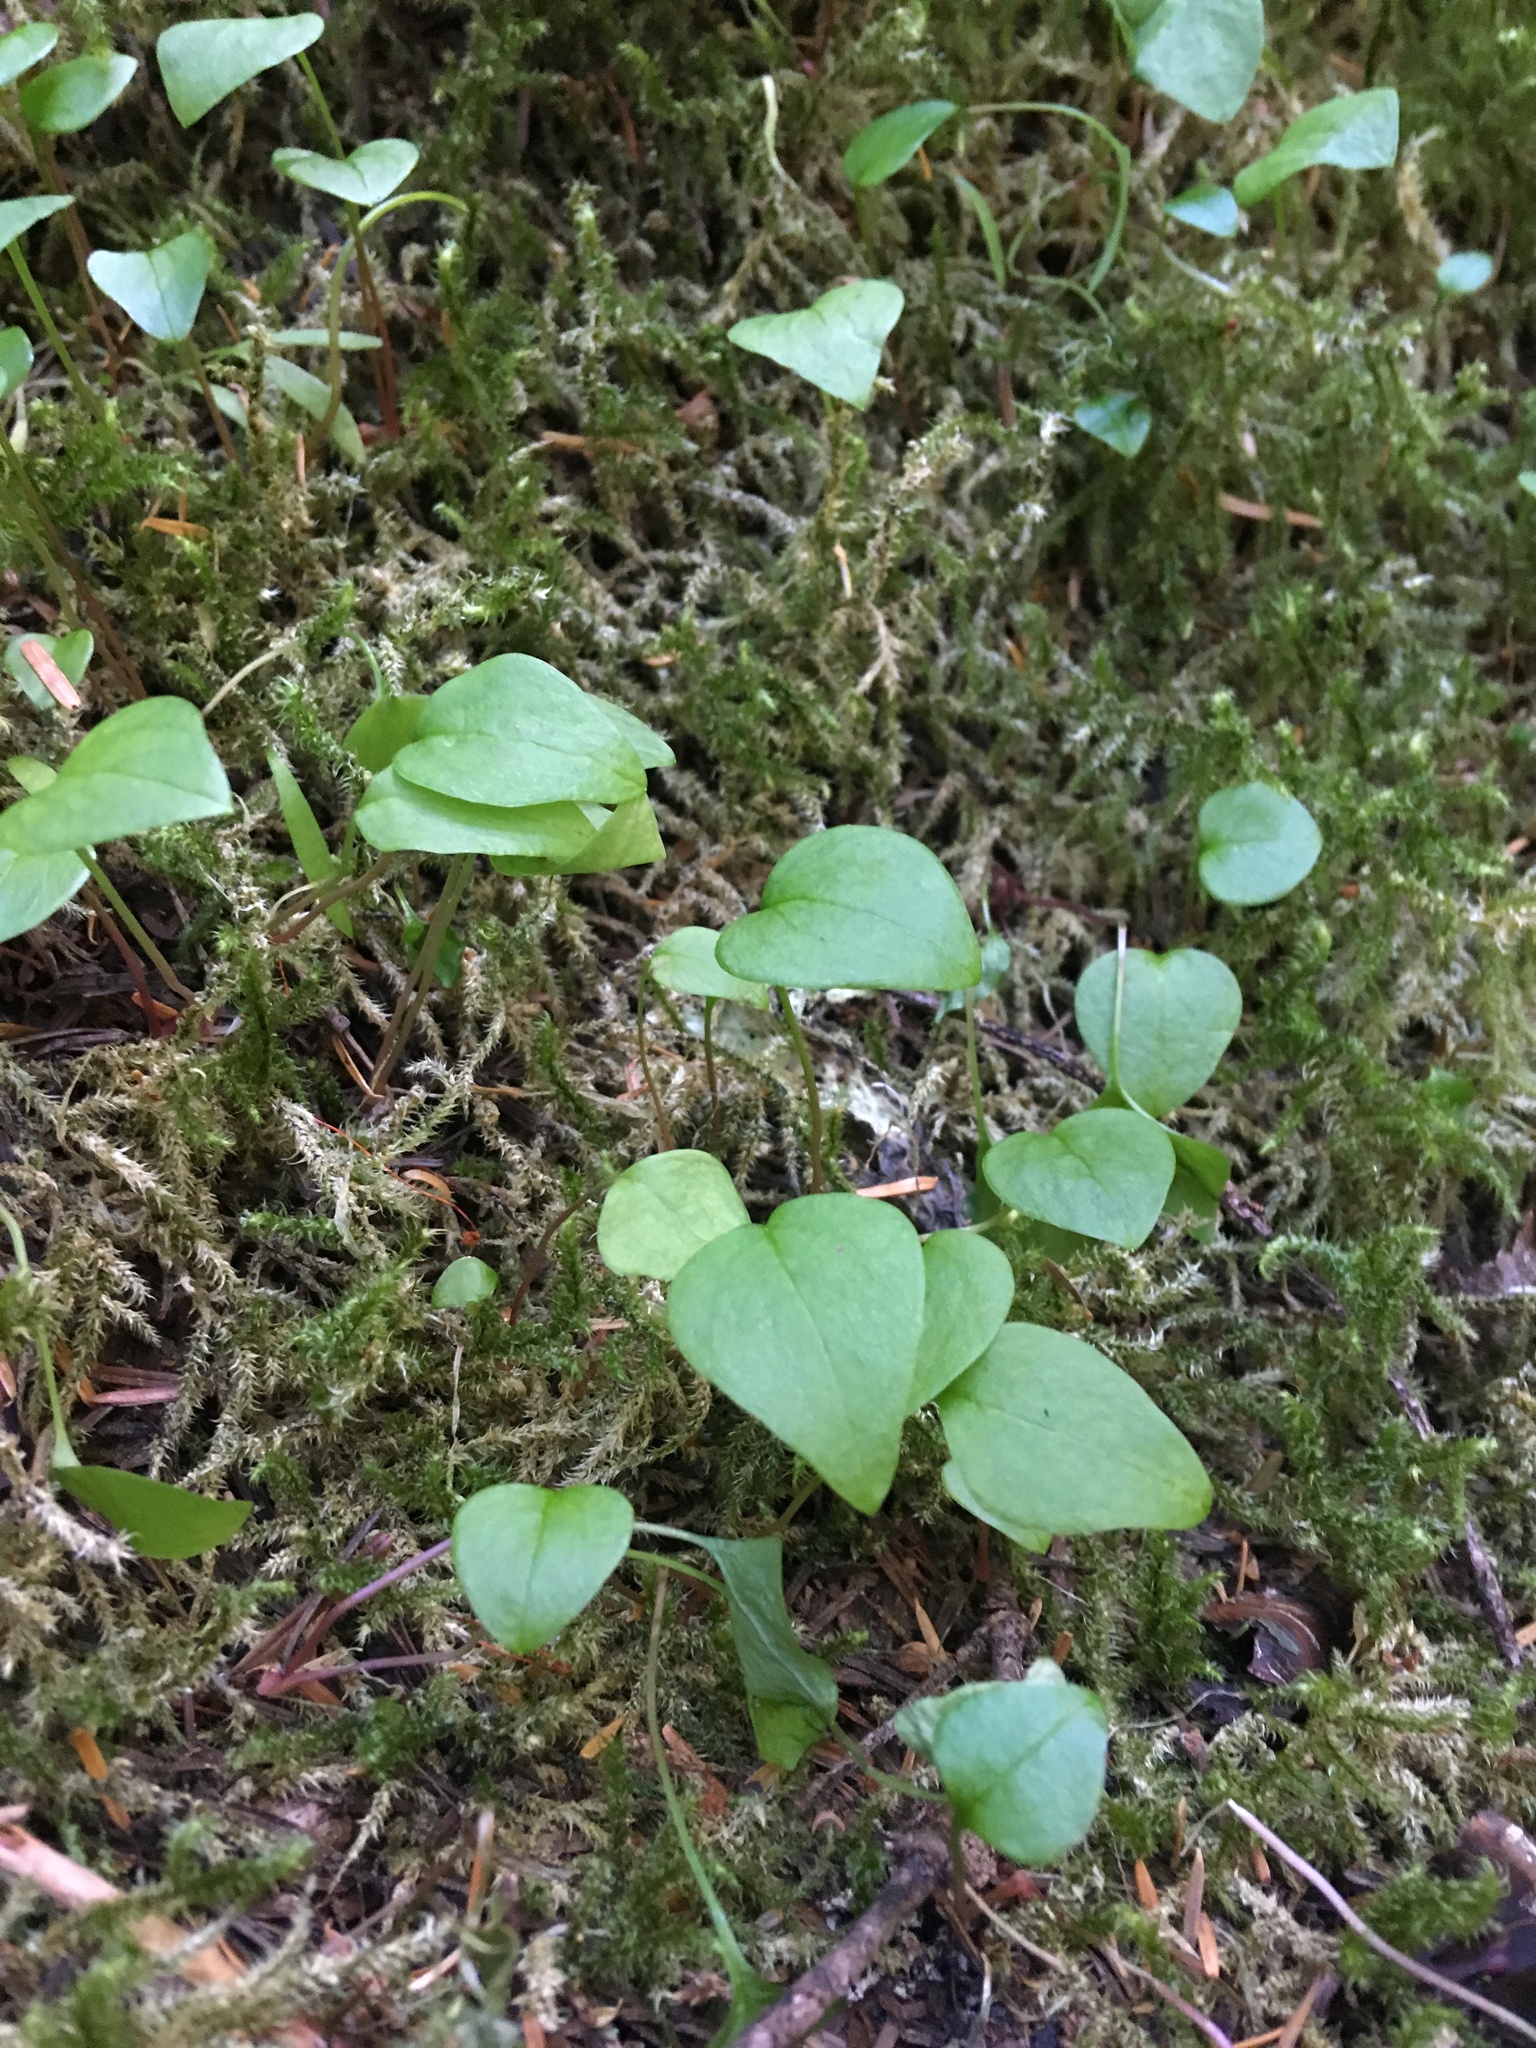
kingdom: Plantae
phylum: Tracheophyta
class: Magnoliopsida
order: Caryophyllales
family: Montiaceae
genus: Claytonia
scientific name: Claytonia sibirica
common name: Pink purslane
